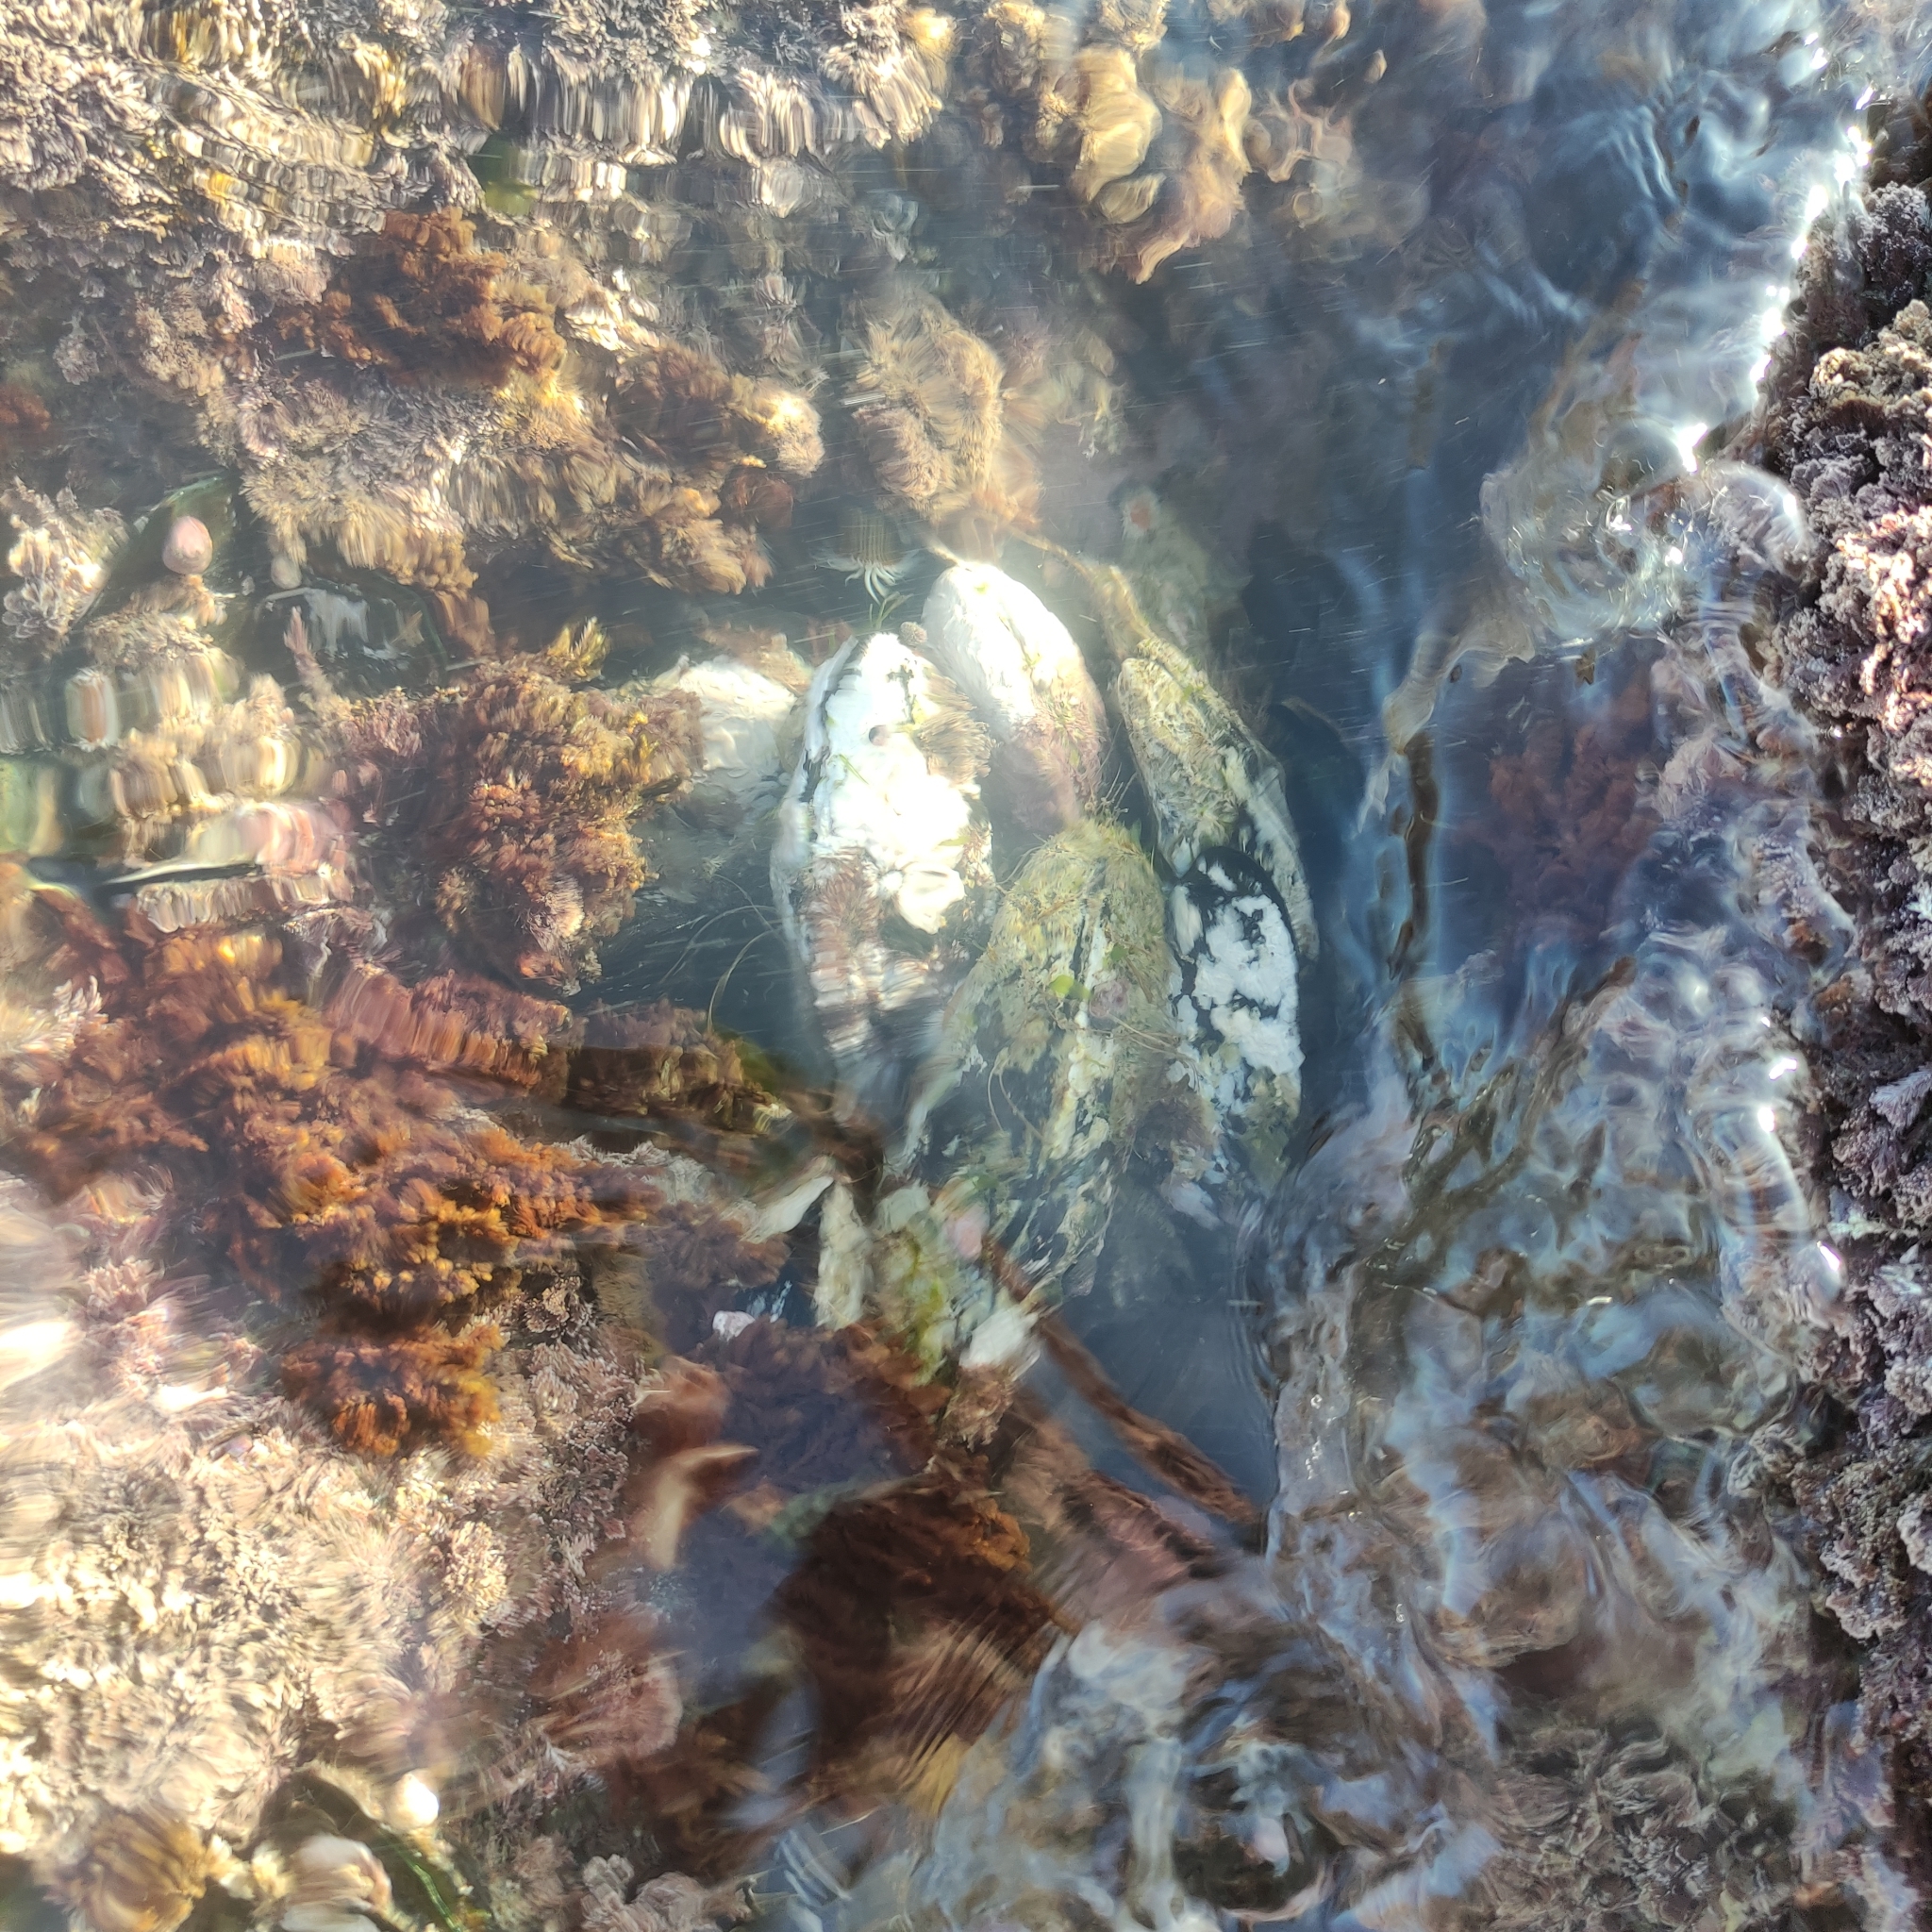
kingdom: Animalia
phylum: Mollusca
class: Bivalvia
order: Mytilida
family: Mytilidae
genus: Perna
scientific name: Perna canaliculus
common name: New zealand greenshelltm
